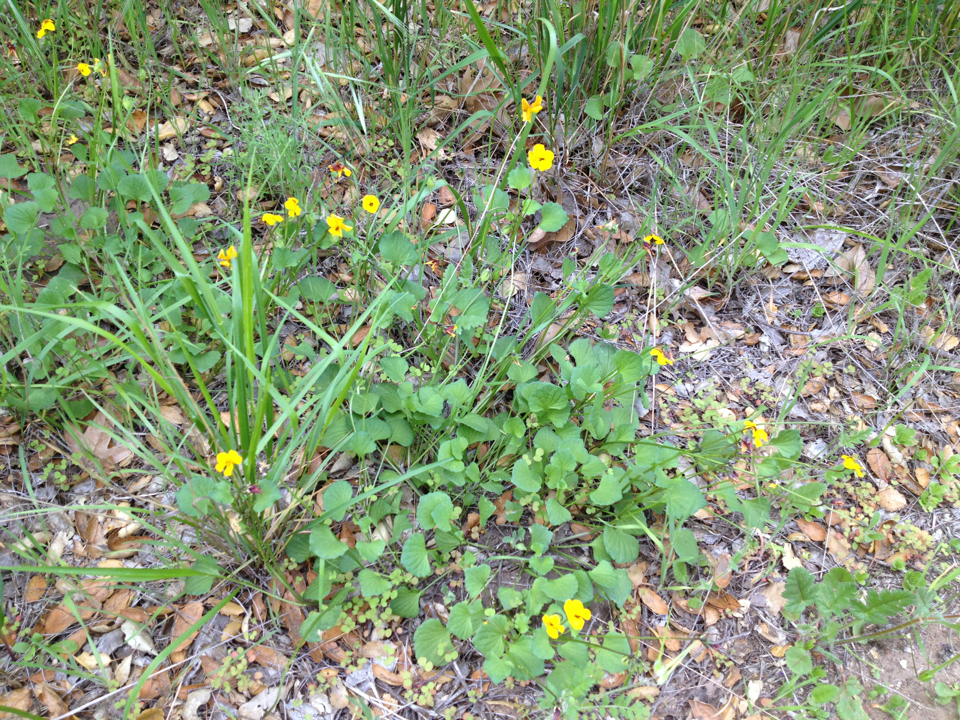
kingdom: Plantae
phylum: Tracheophyta
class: Magnoliopsida
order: Malpighiales
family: Violaceae
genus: Viola
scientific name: Viola pedunculata
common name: California golden violet
